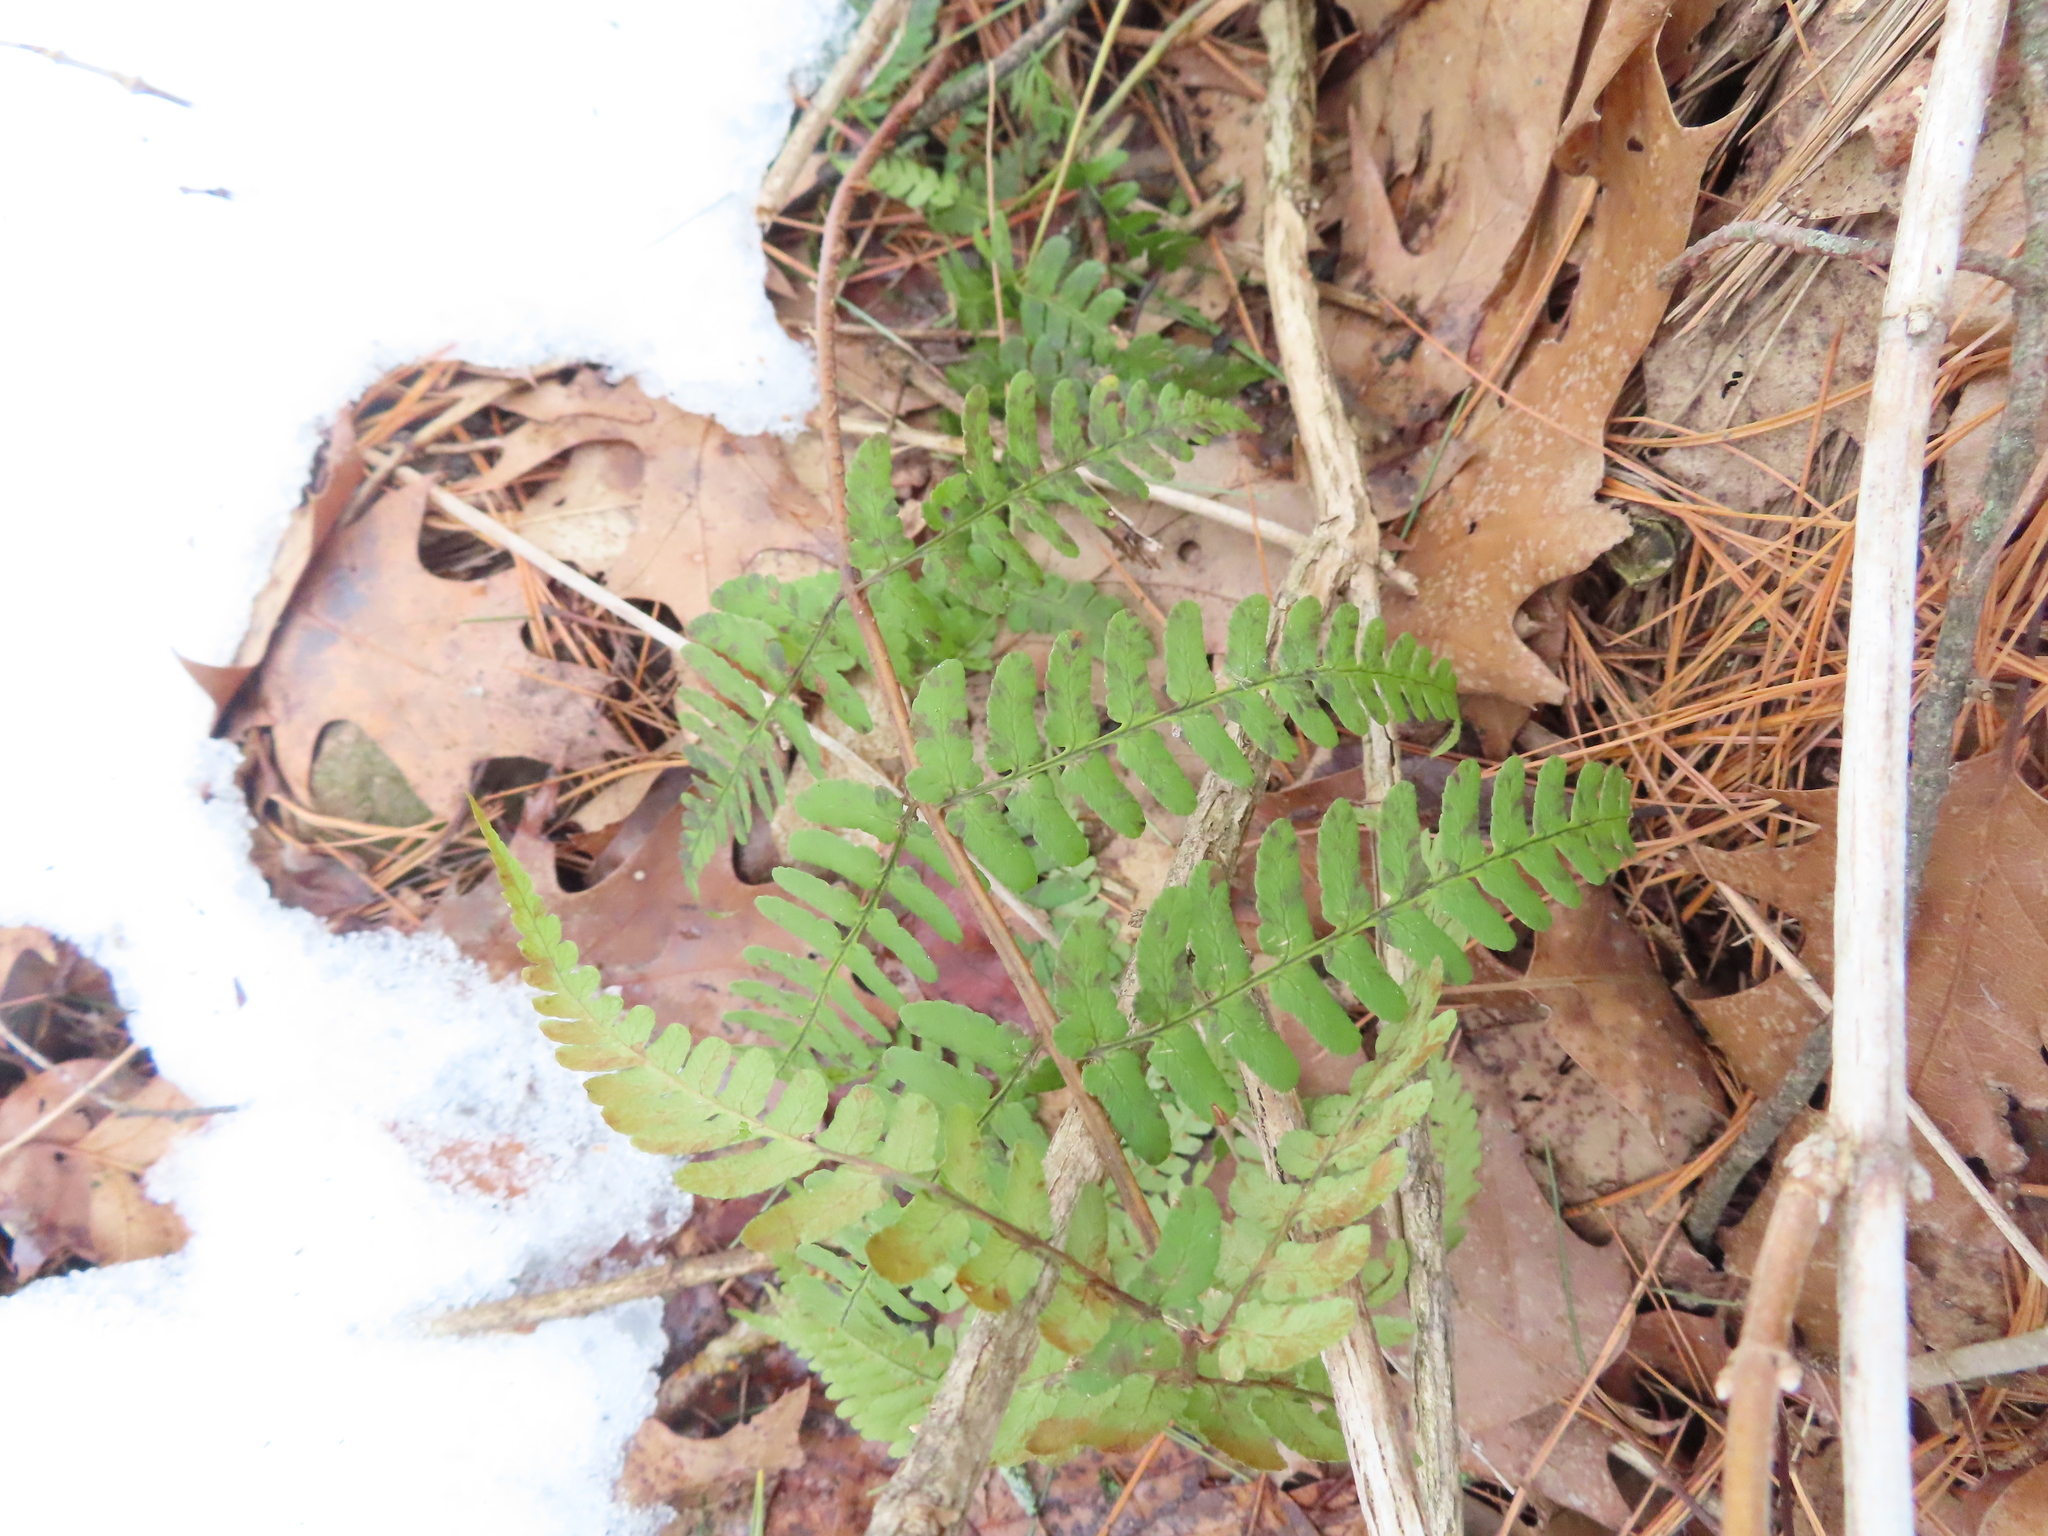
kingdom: Plantae
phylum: Tracheophyta
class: Polypodiopsida
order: Polypodiales
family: Dryopteridaceae
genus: Dryopteris
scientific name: Dryopteris marginalis
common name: Marginal wood fern
